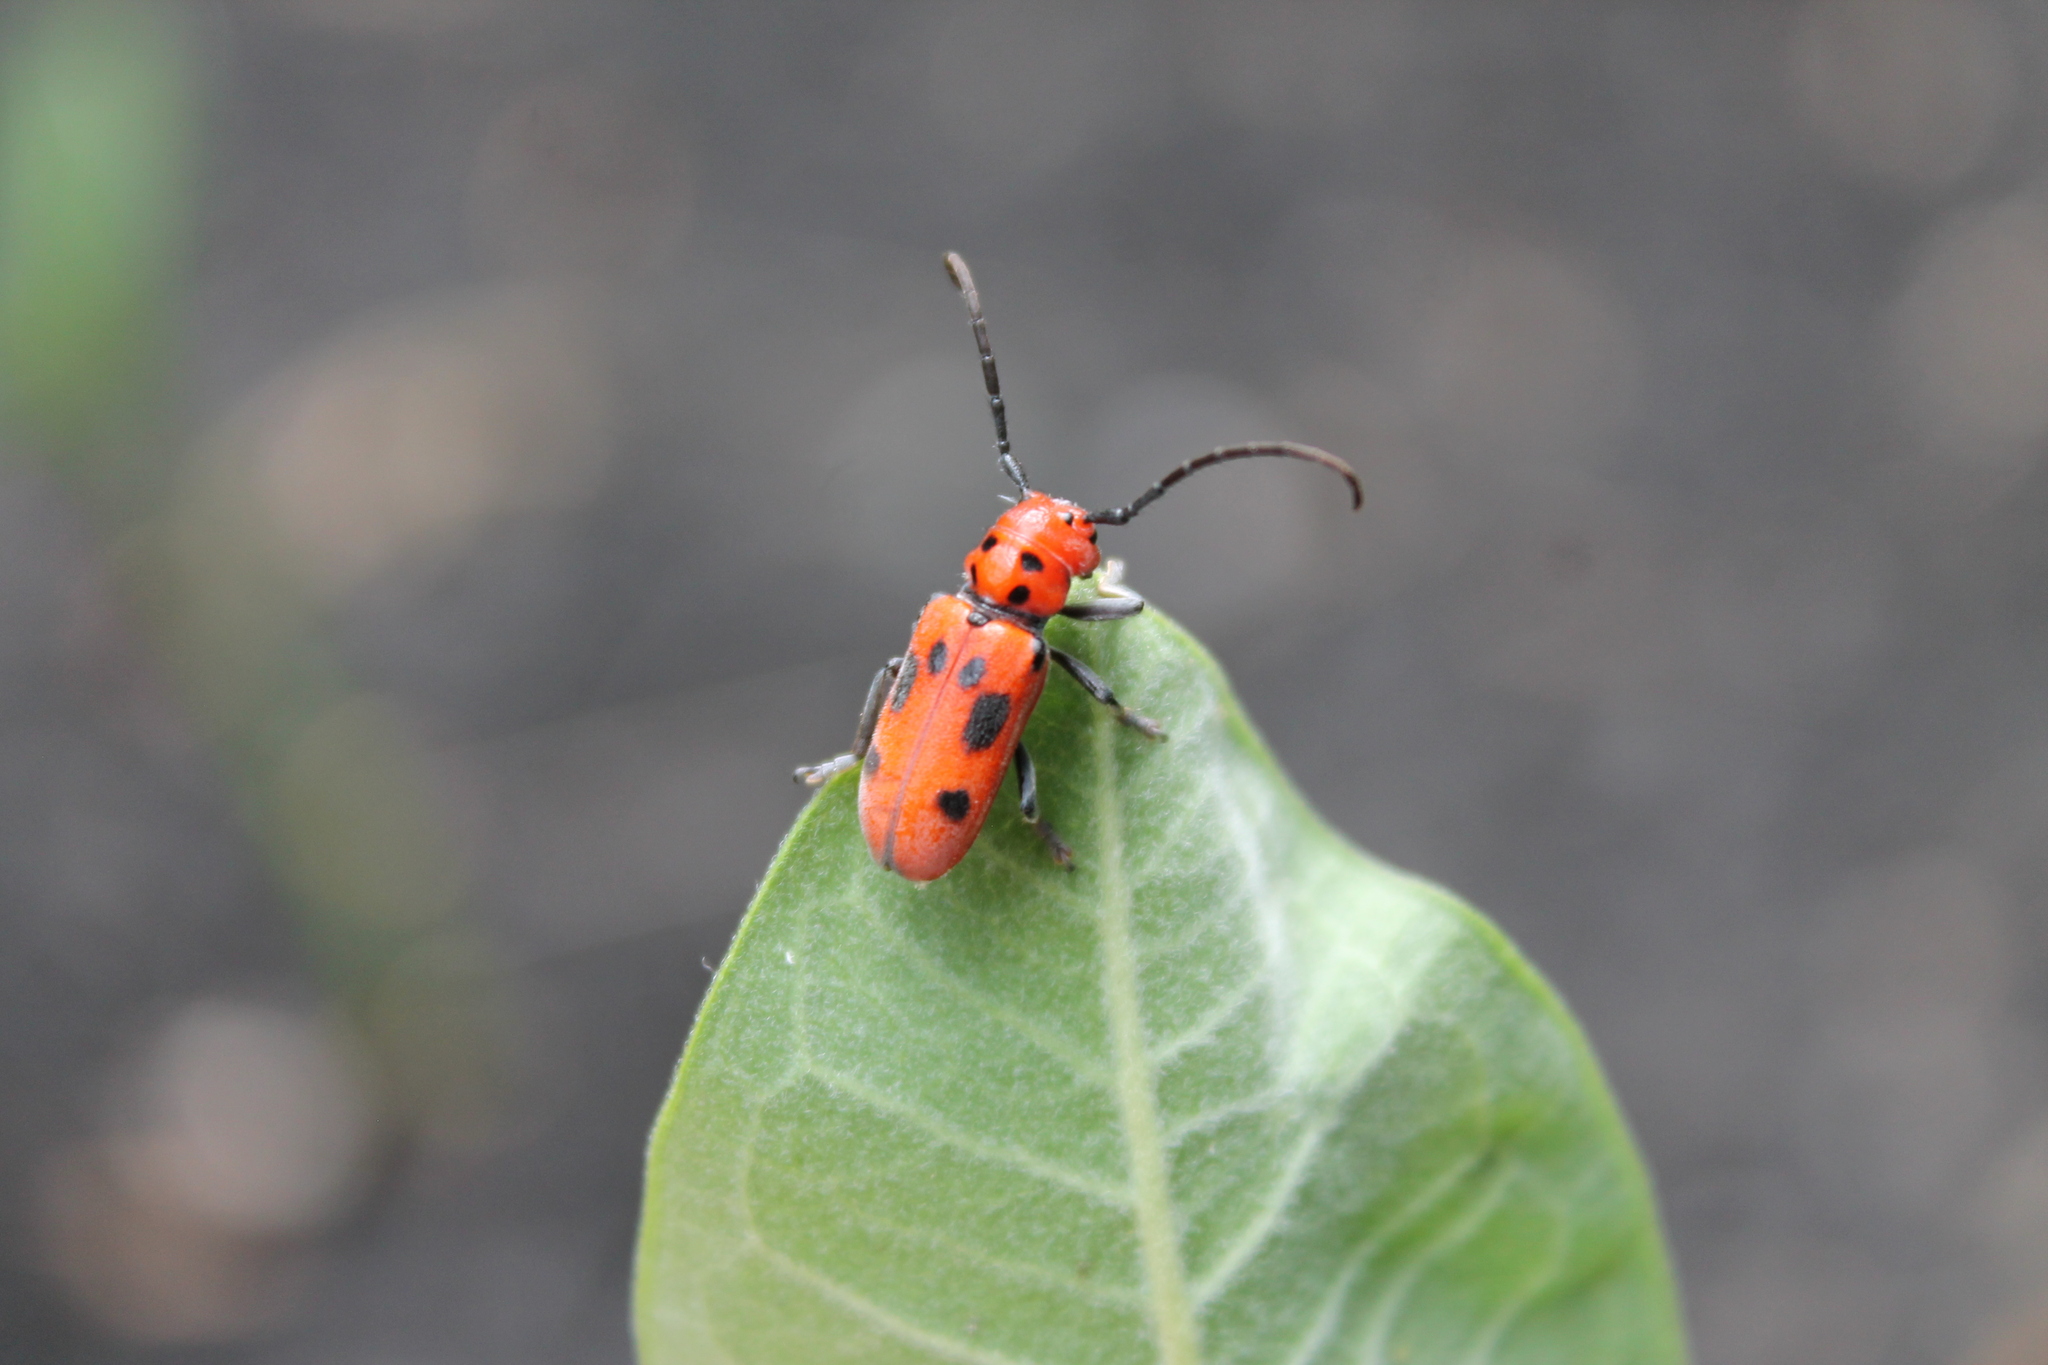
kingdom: Animalia
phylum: Arthropoda
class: Insecta
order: Coleoptera
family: Cerambycidae
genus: Tetraopes
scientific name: Tetraopes tetrophthalmus
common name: Red milkweed beetle
